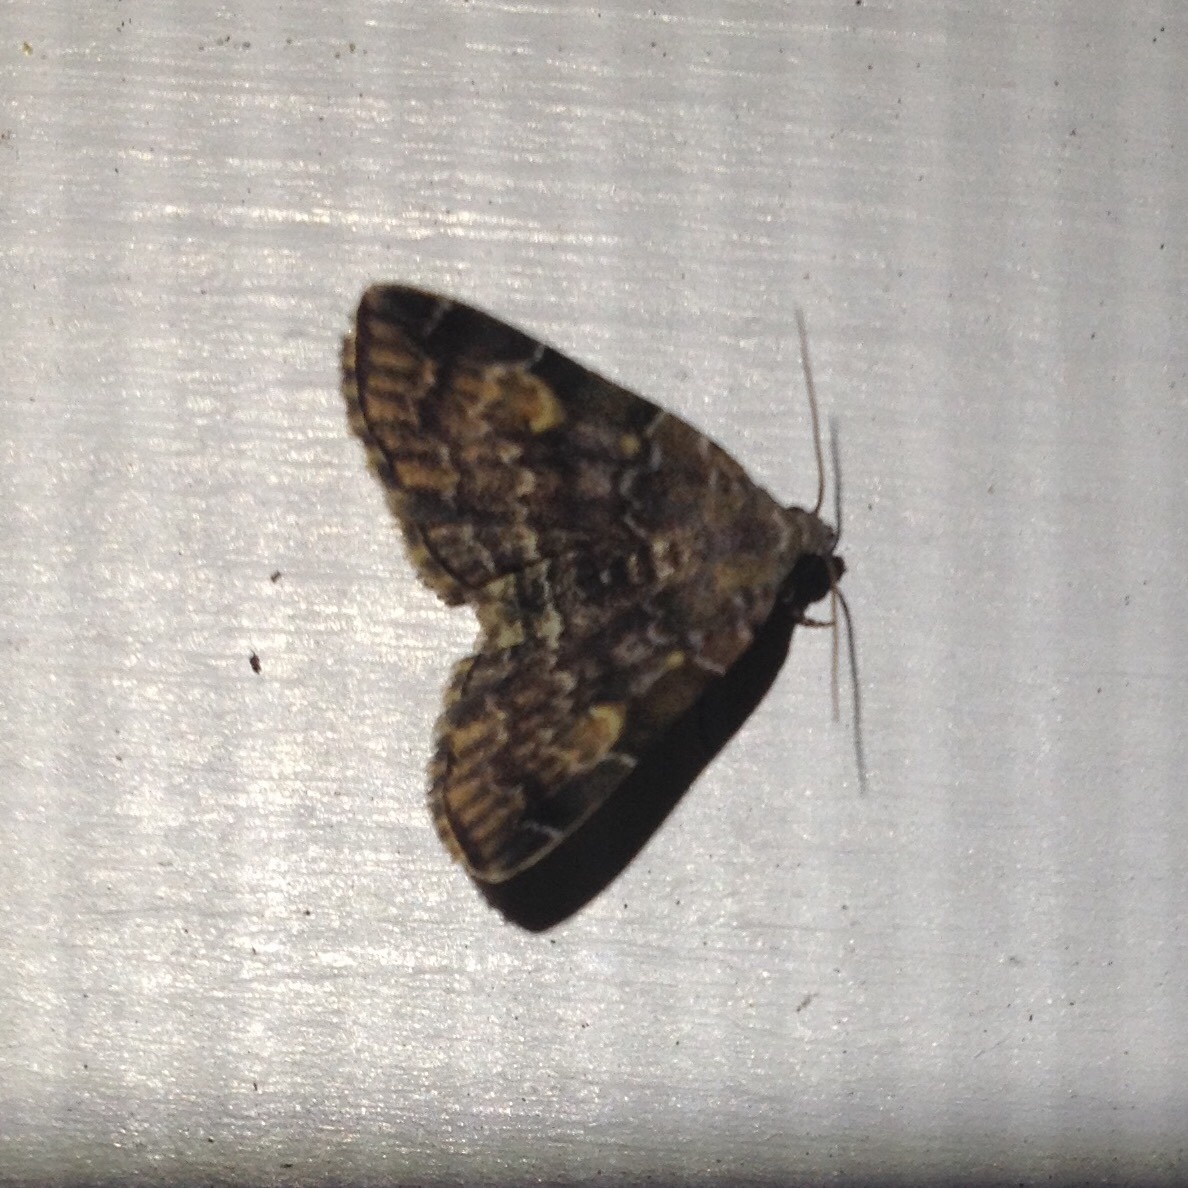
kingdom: Animalia
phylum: Arthropoda
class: Insecta
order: Lepidoptera
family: Erebidae
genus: Idia
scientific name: Idia americalis
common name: American idia moth
